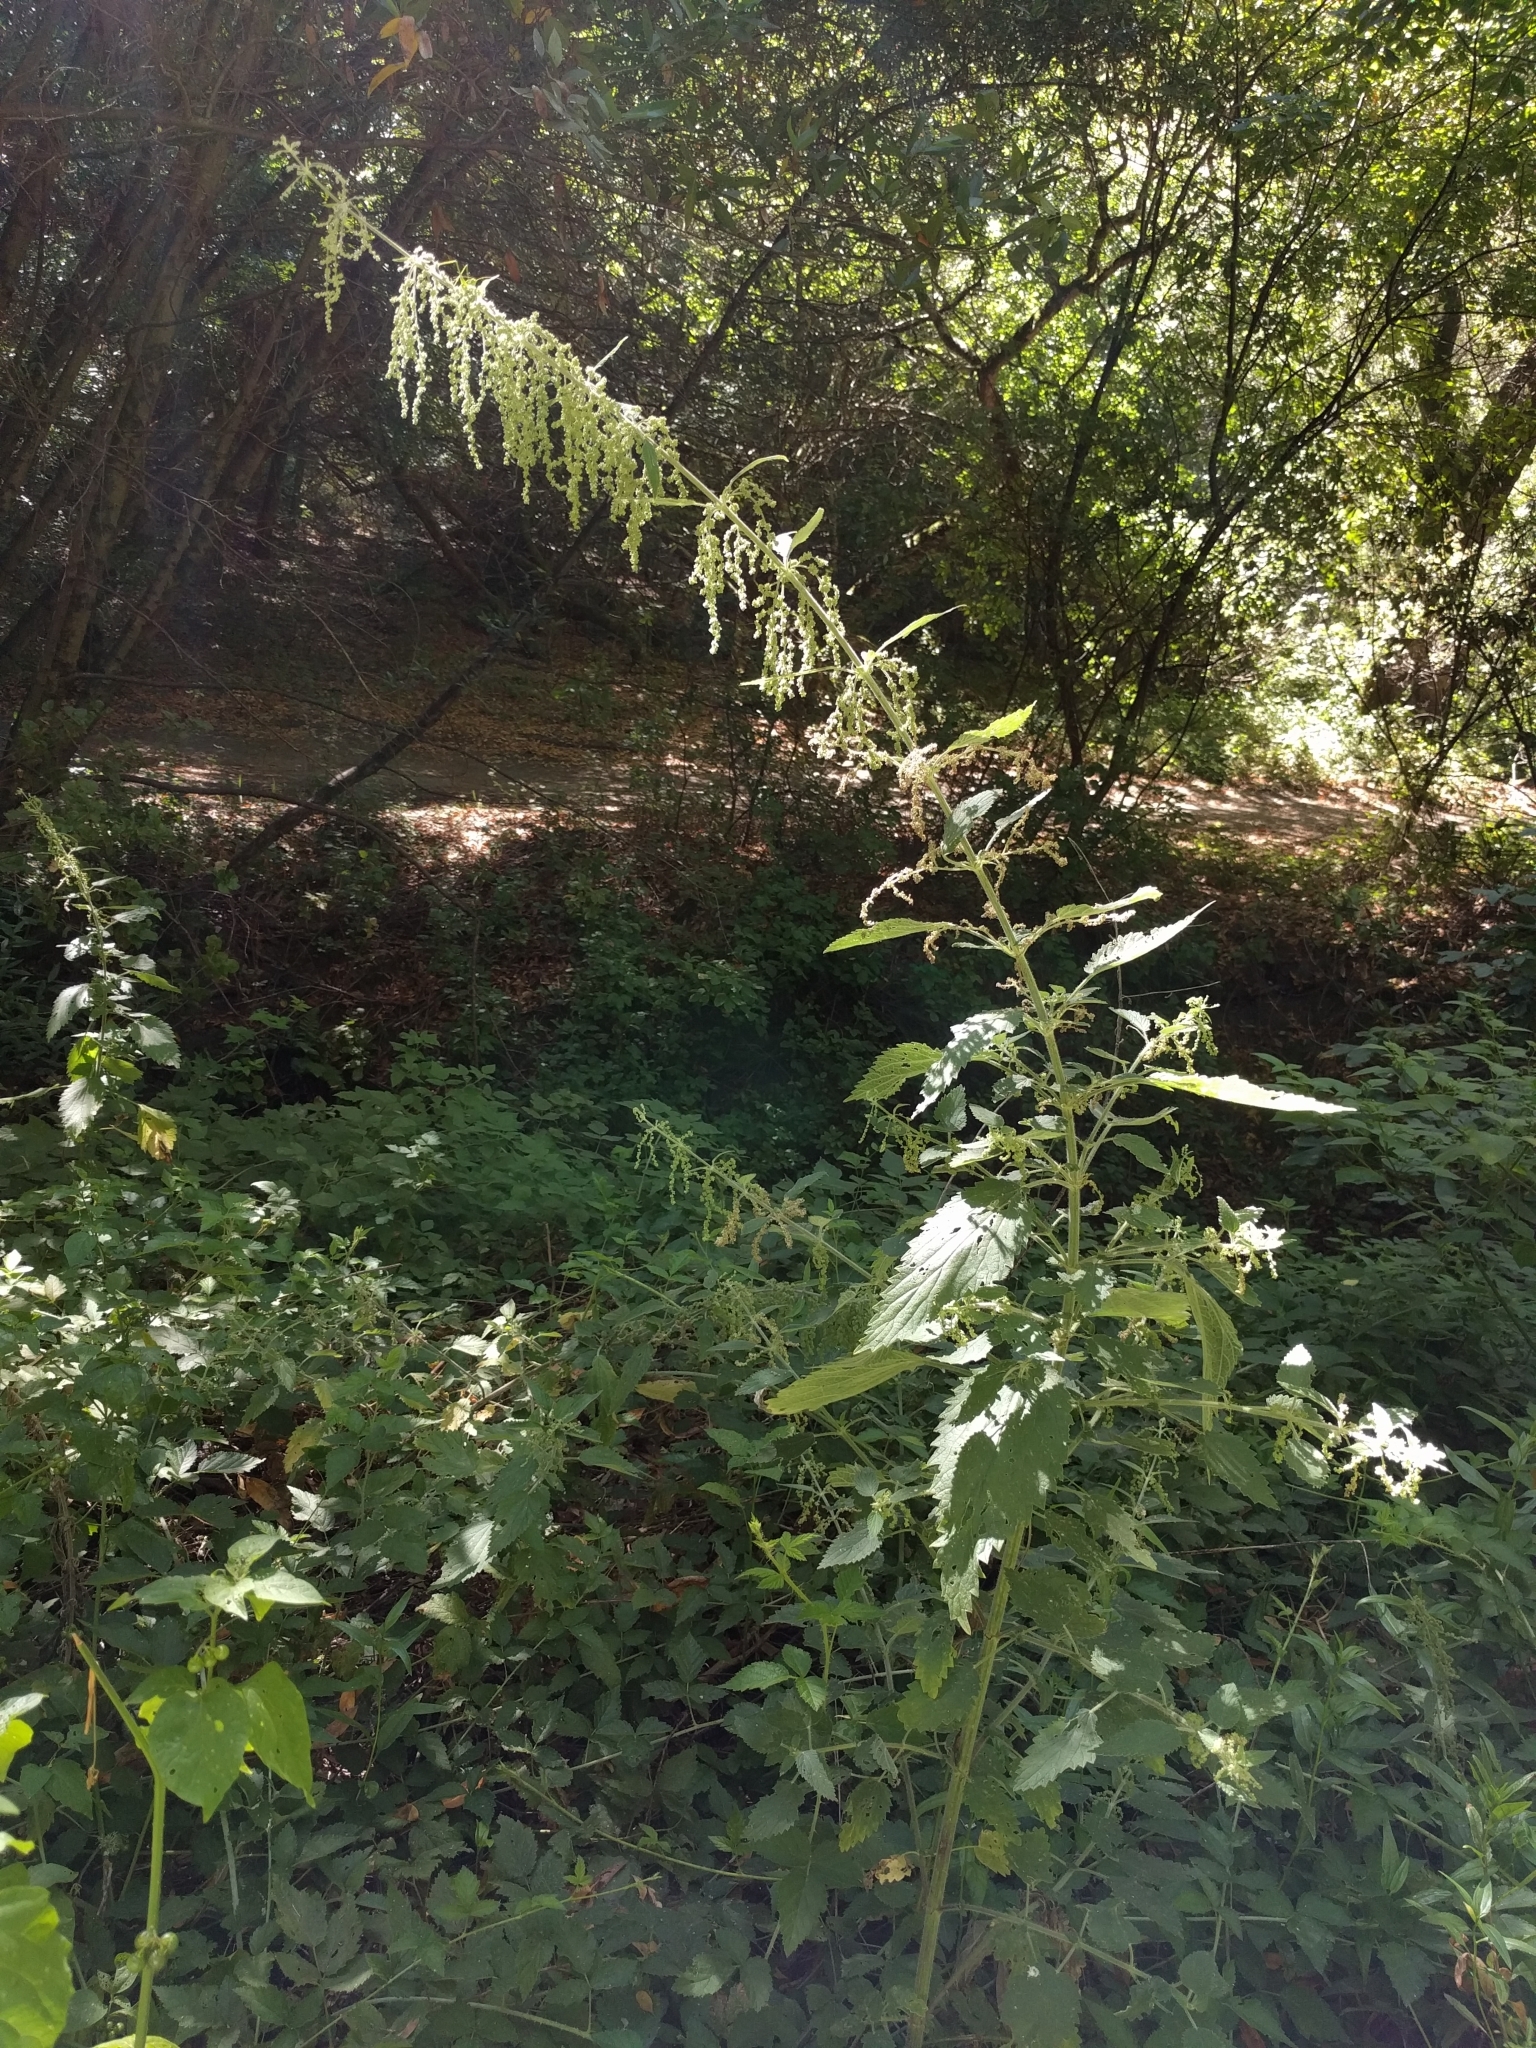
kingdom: Plantae
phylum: Tracheophyta
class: Magnoliopsida
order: Rosales
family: Urticaceae
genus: Urtica
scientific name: Urtica dioica
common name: Common nettle
